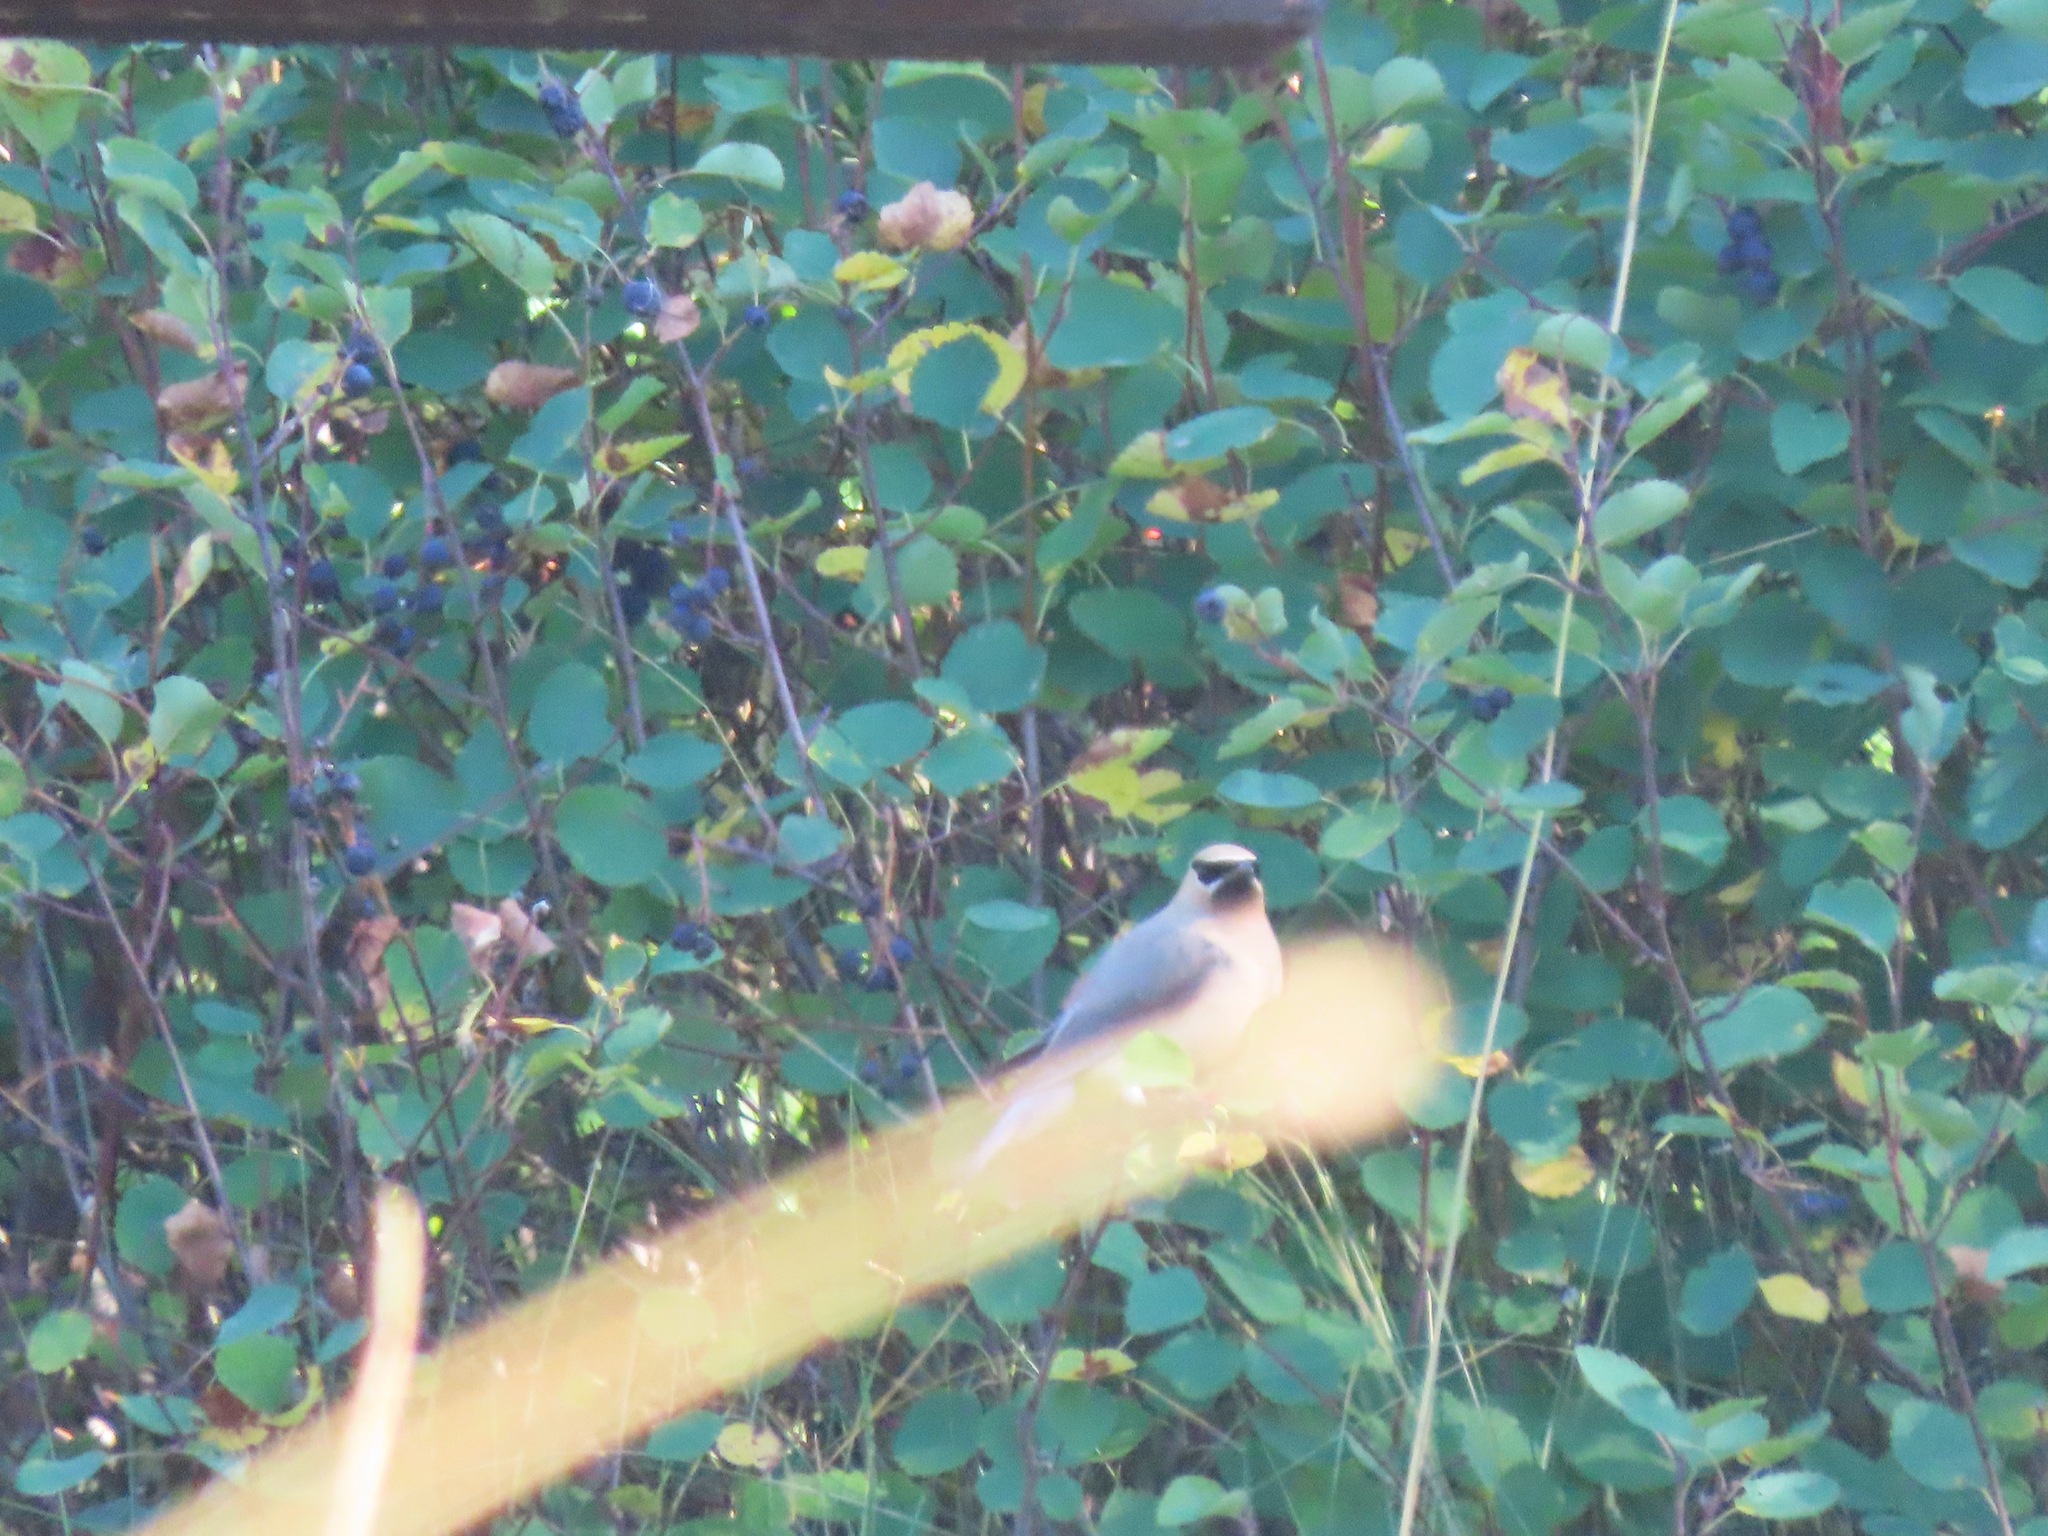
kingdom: Animalia
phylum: Chordata
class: Aves
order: Passeriformes
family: Bombycillidae
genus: Bombycilla
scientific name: Bombycilla cedrorum
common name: Cedar waxwing
